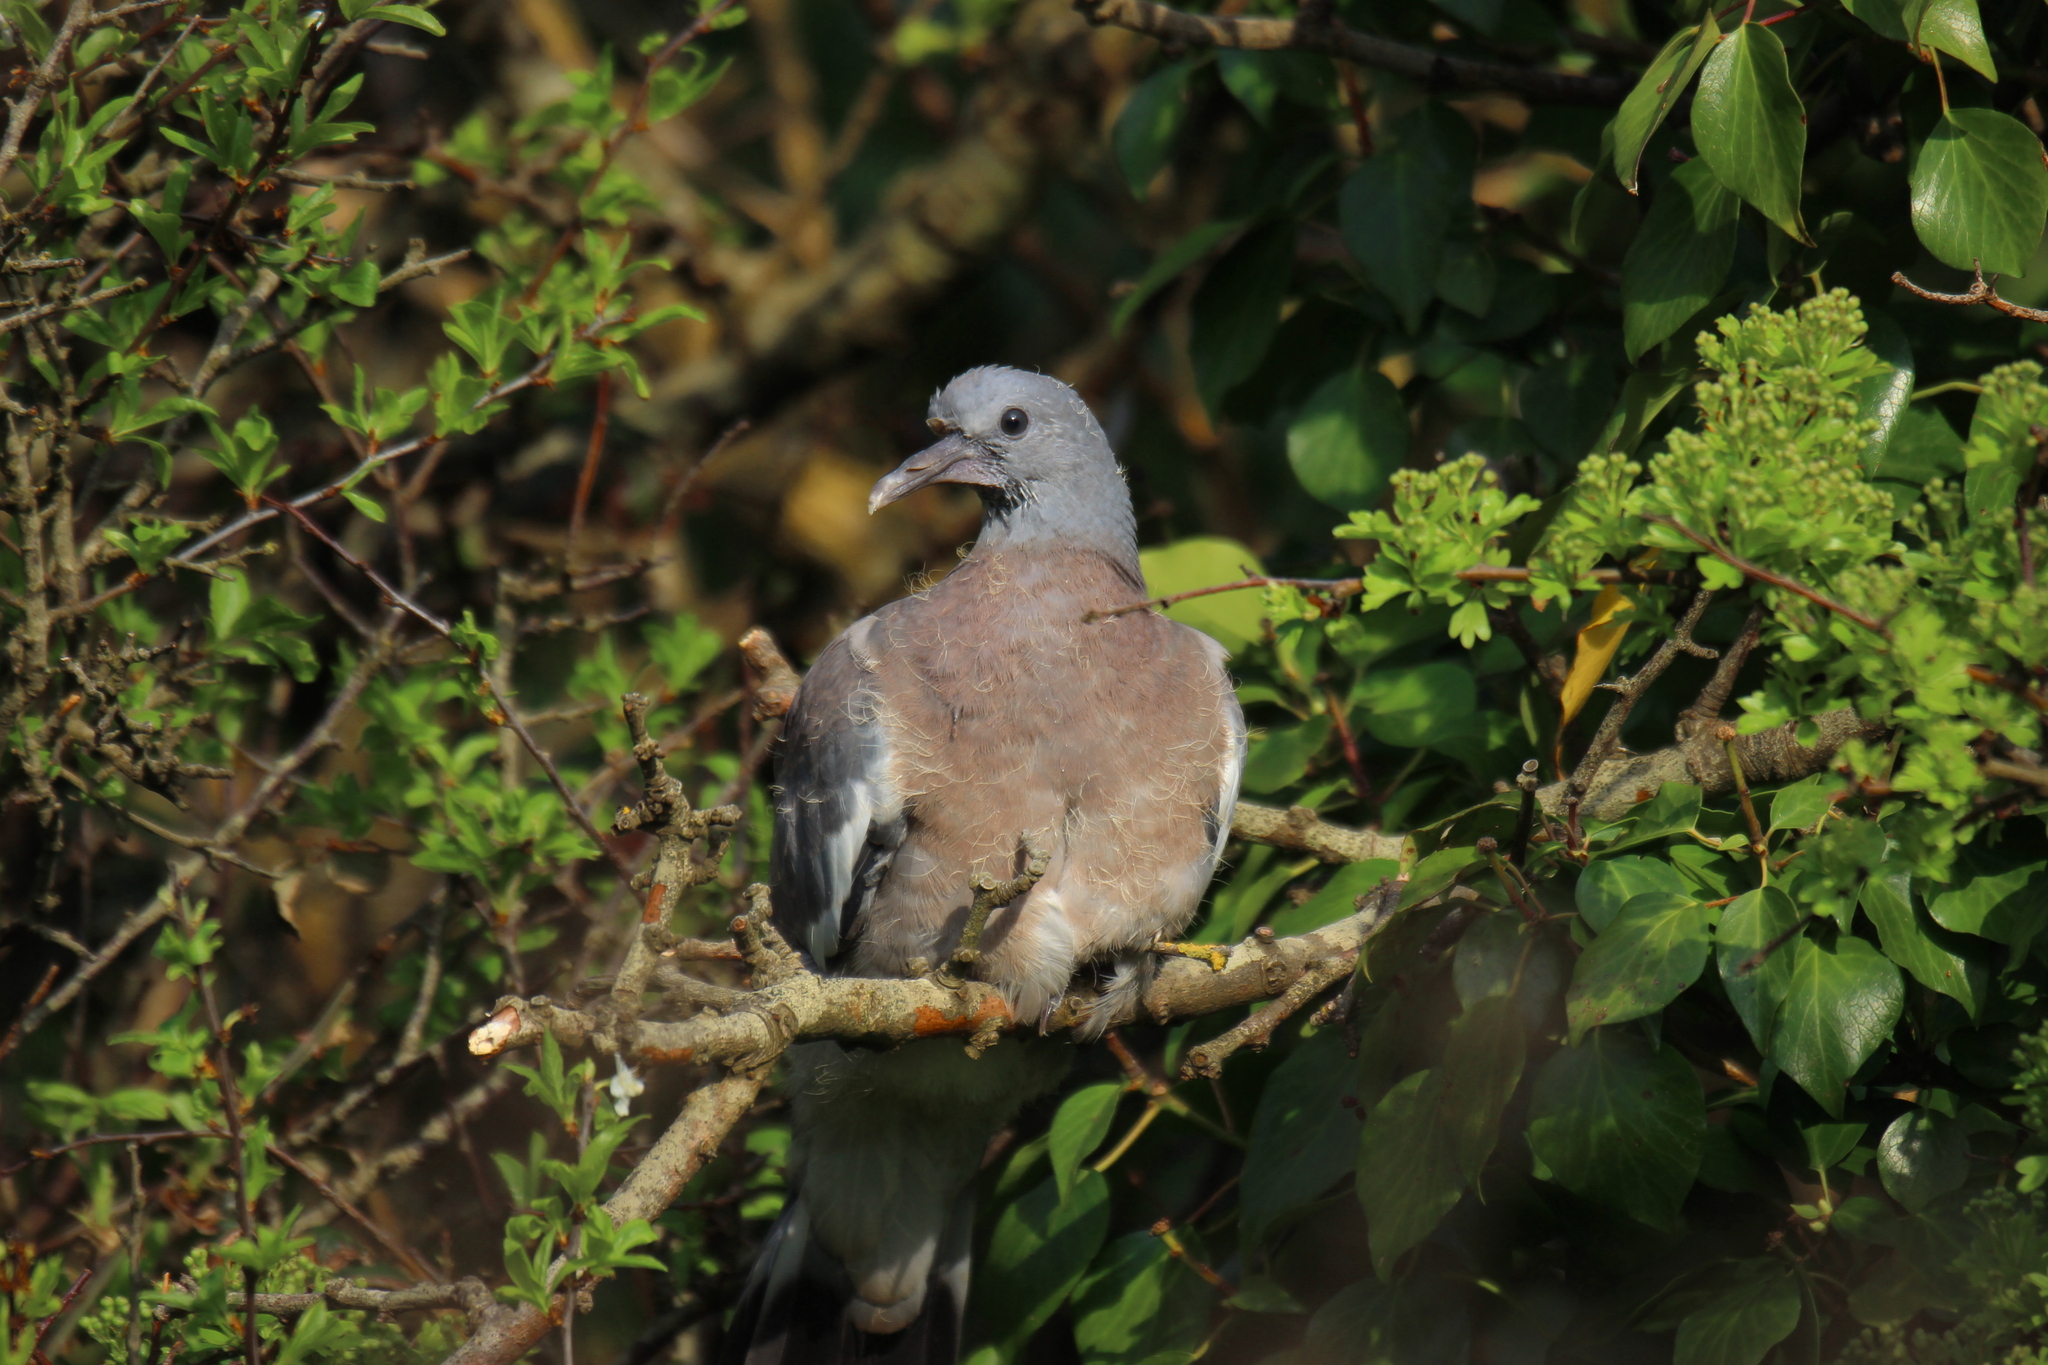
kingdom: Animalia
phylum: Chordata
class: Aves
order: Columbiformes
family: Columbidae
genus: Columba
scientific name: Columba palumbus
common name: Common wood pigeon
